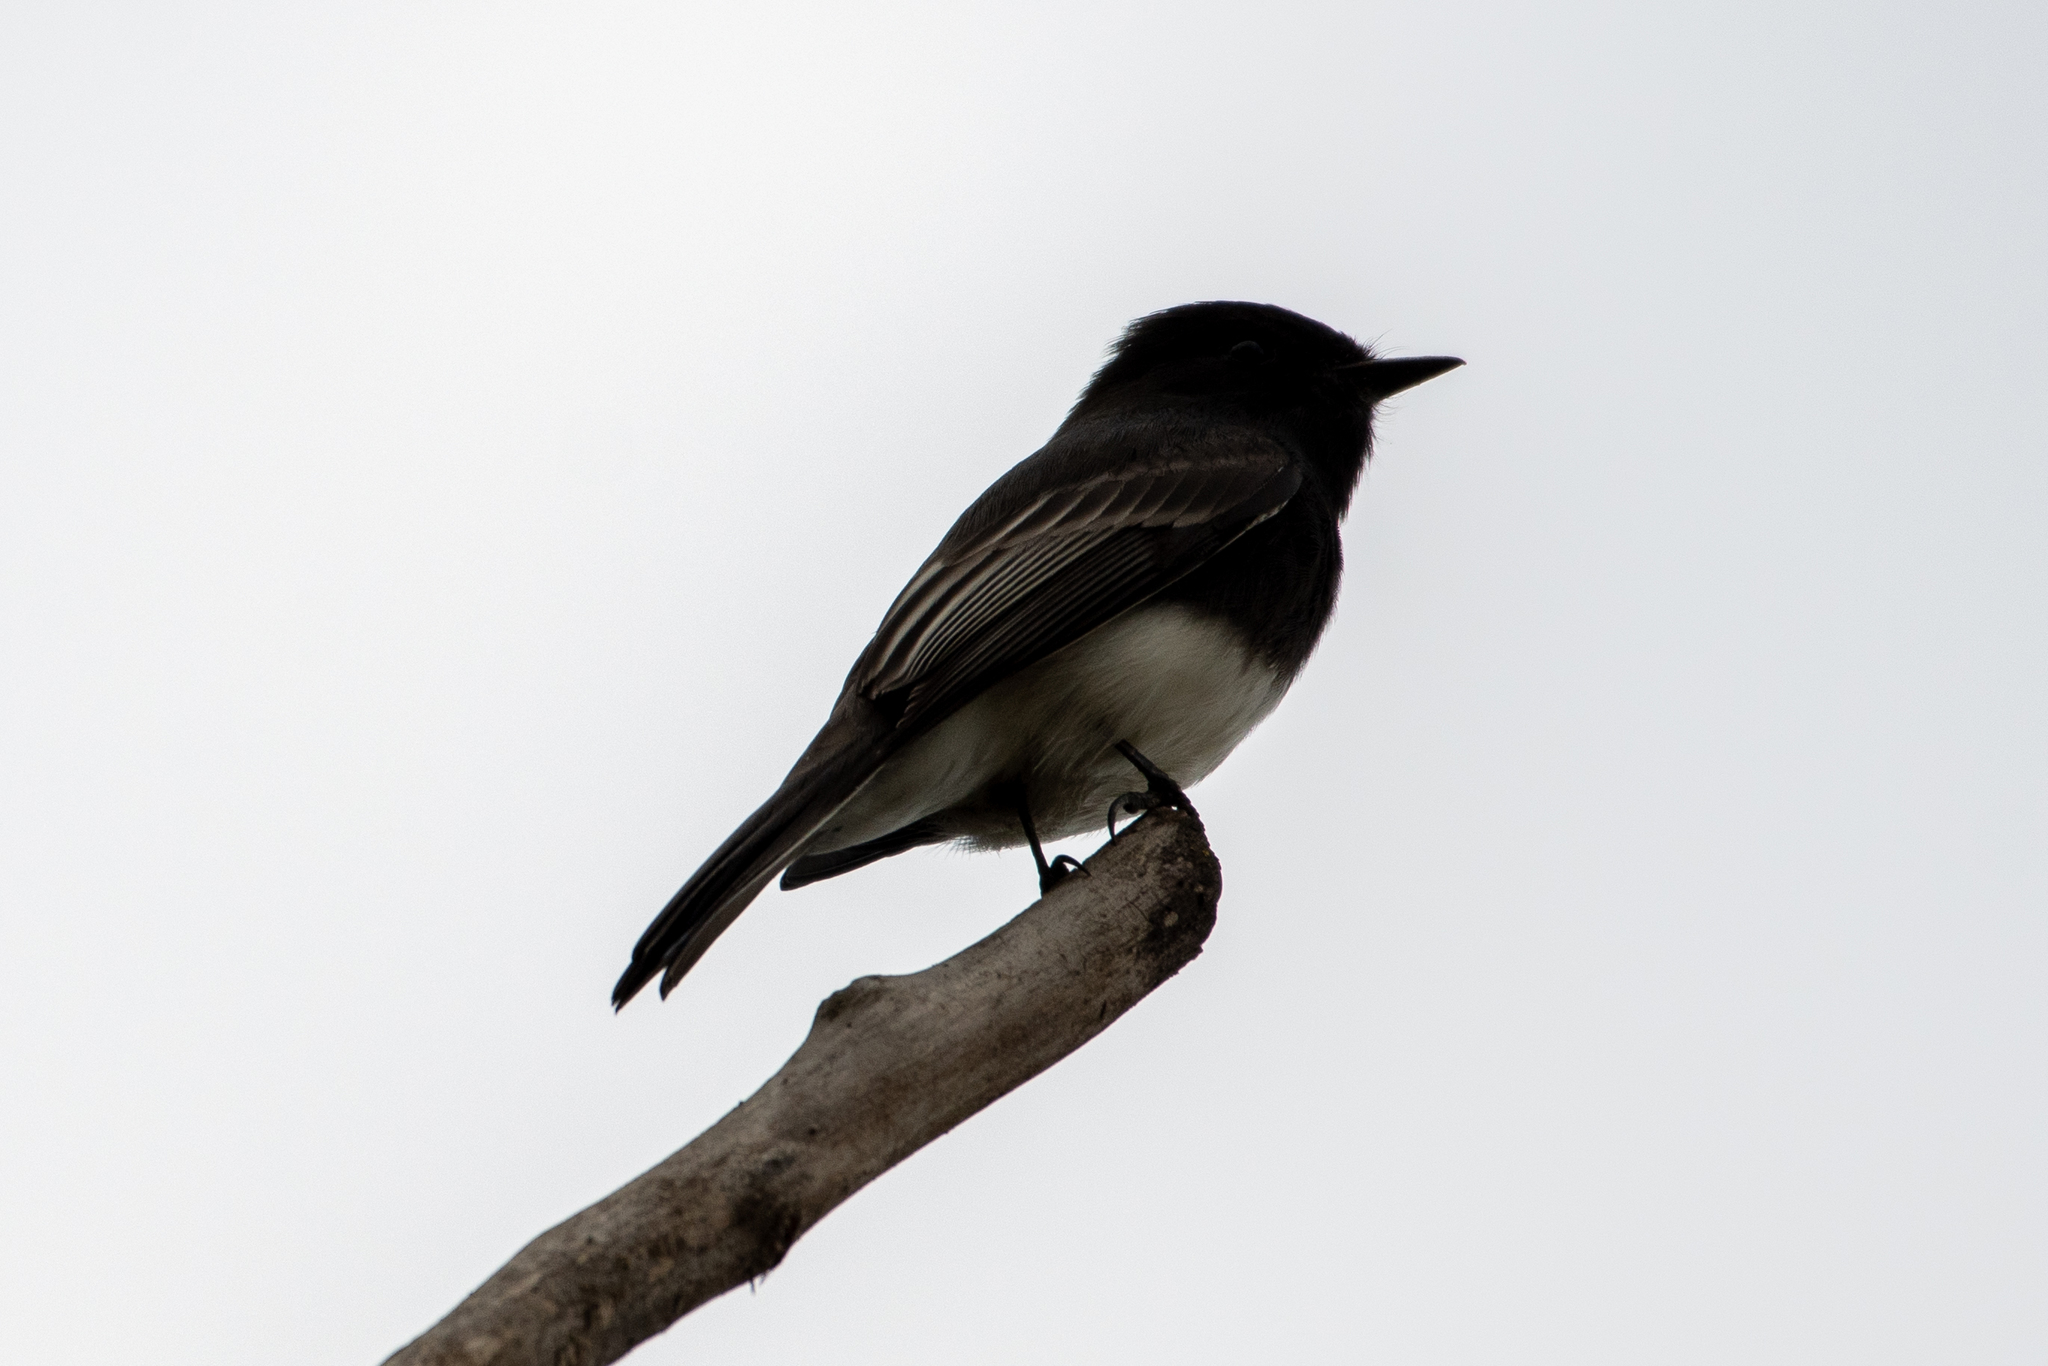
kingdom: Animalia
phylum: Chordata
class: Aves
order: Passeriformes
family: Tyrannidae
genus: Sayornis
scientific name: Sayornis nigricans
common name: Black phoebe
